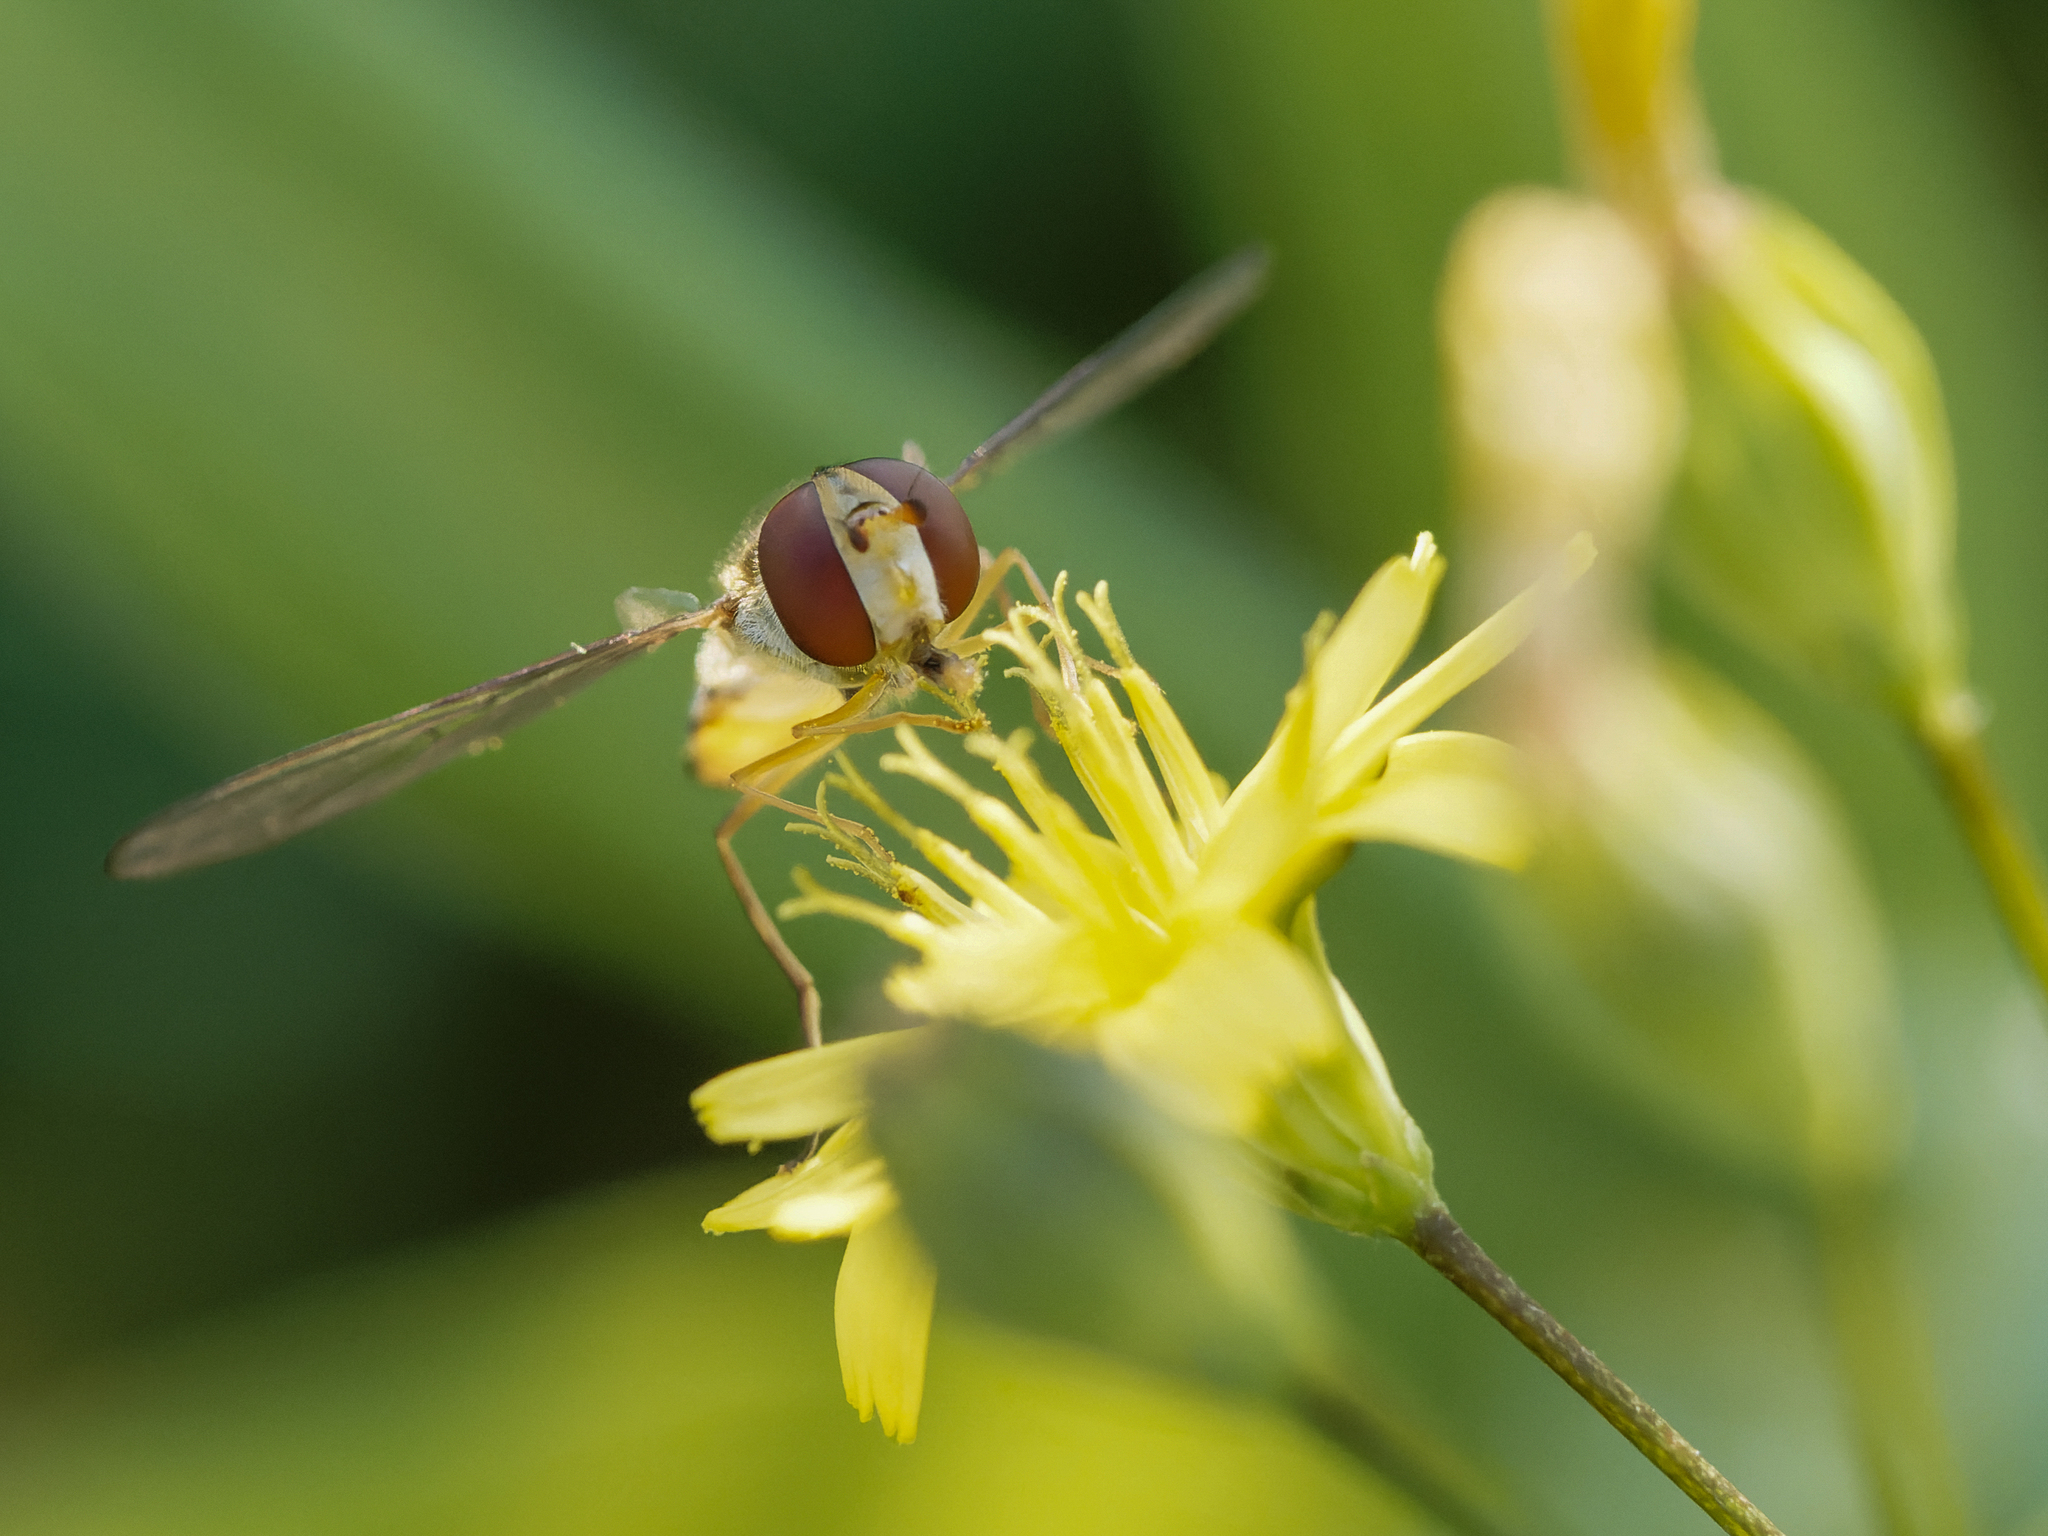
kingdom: Animalia
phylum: Arthropoda
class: Insecta
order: Diptera
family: Syrphidae
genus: Episyrphus
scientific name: Episyrphus balteatus
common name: Marmalade hoverfly
